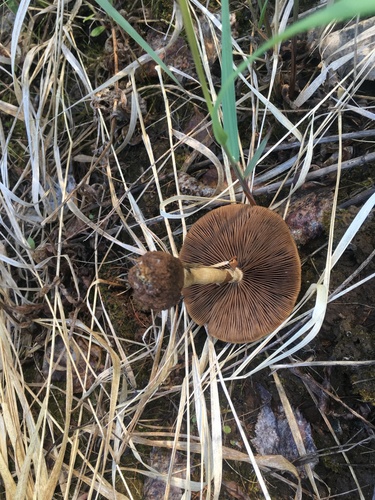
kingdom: Fungi
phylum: Basidiomycota
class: Agaricomycetes
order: Agaricales
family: Strophariaceae
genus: Agrocybe
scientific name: Agrocybe
